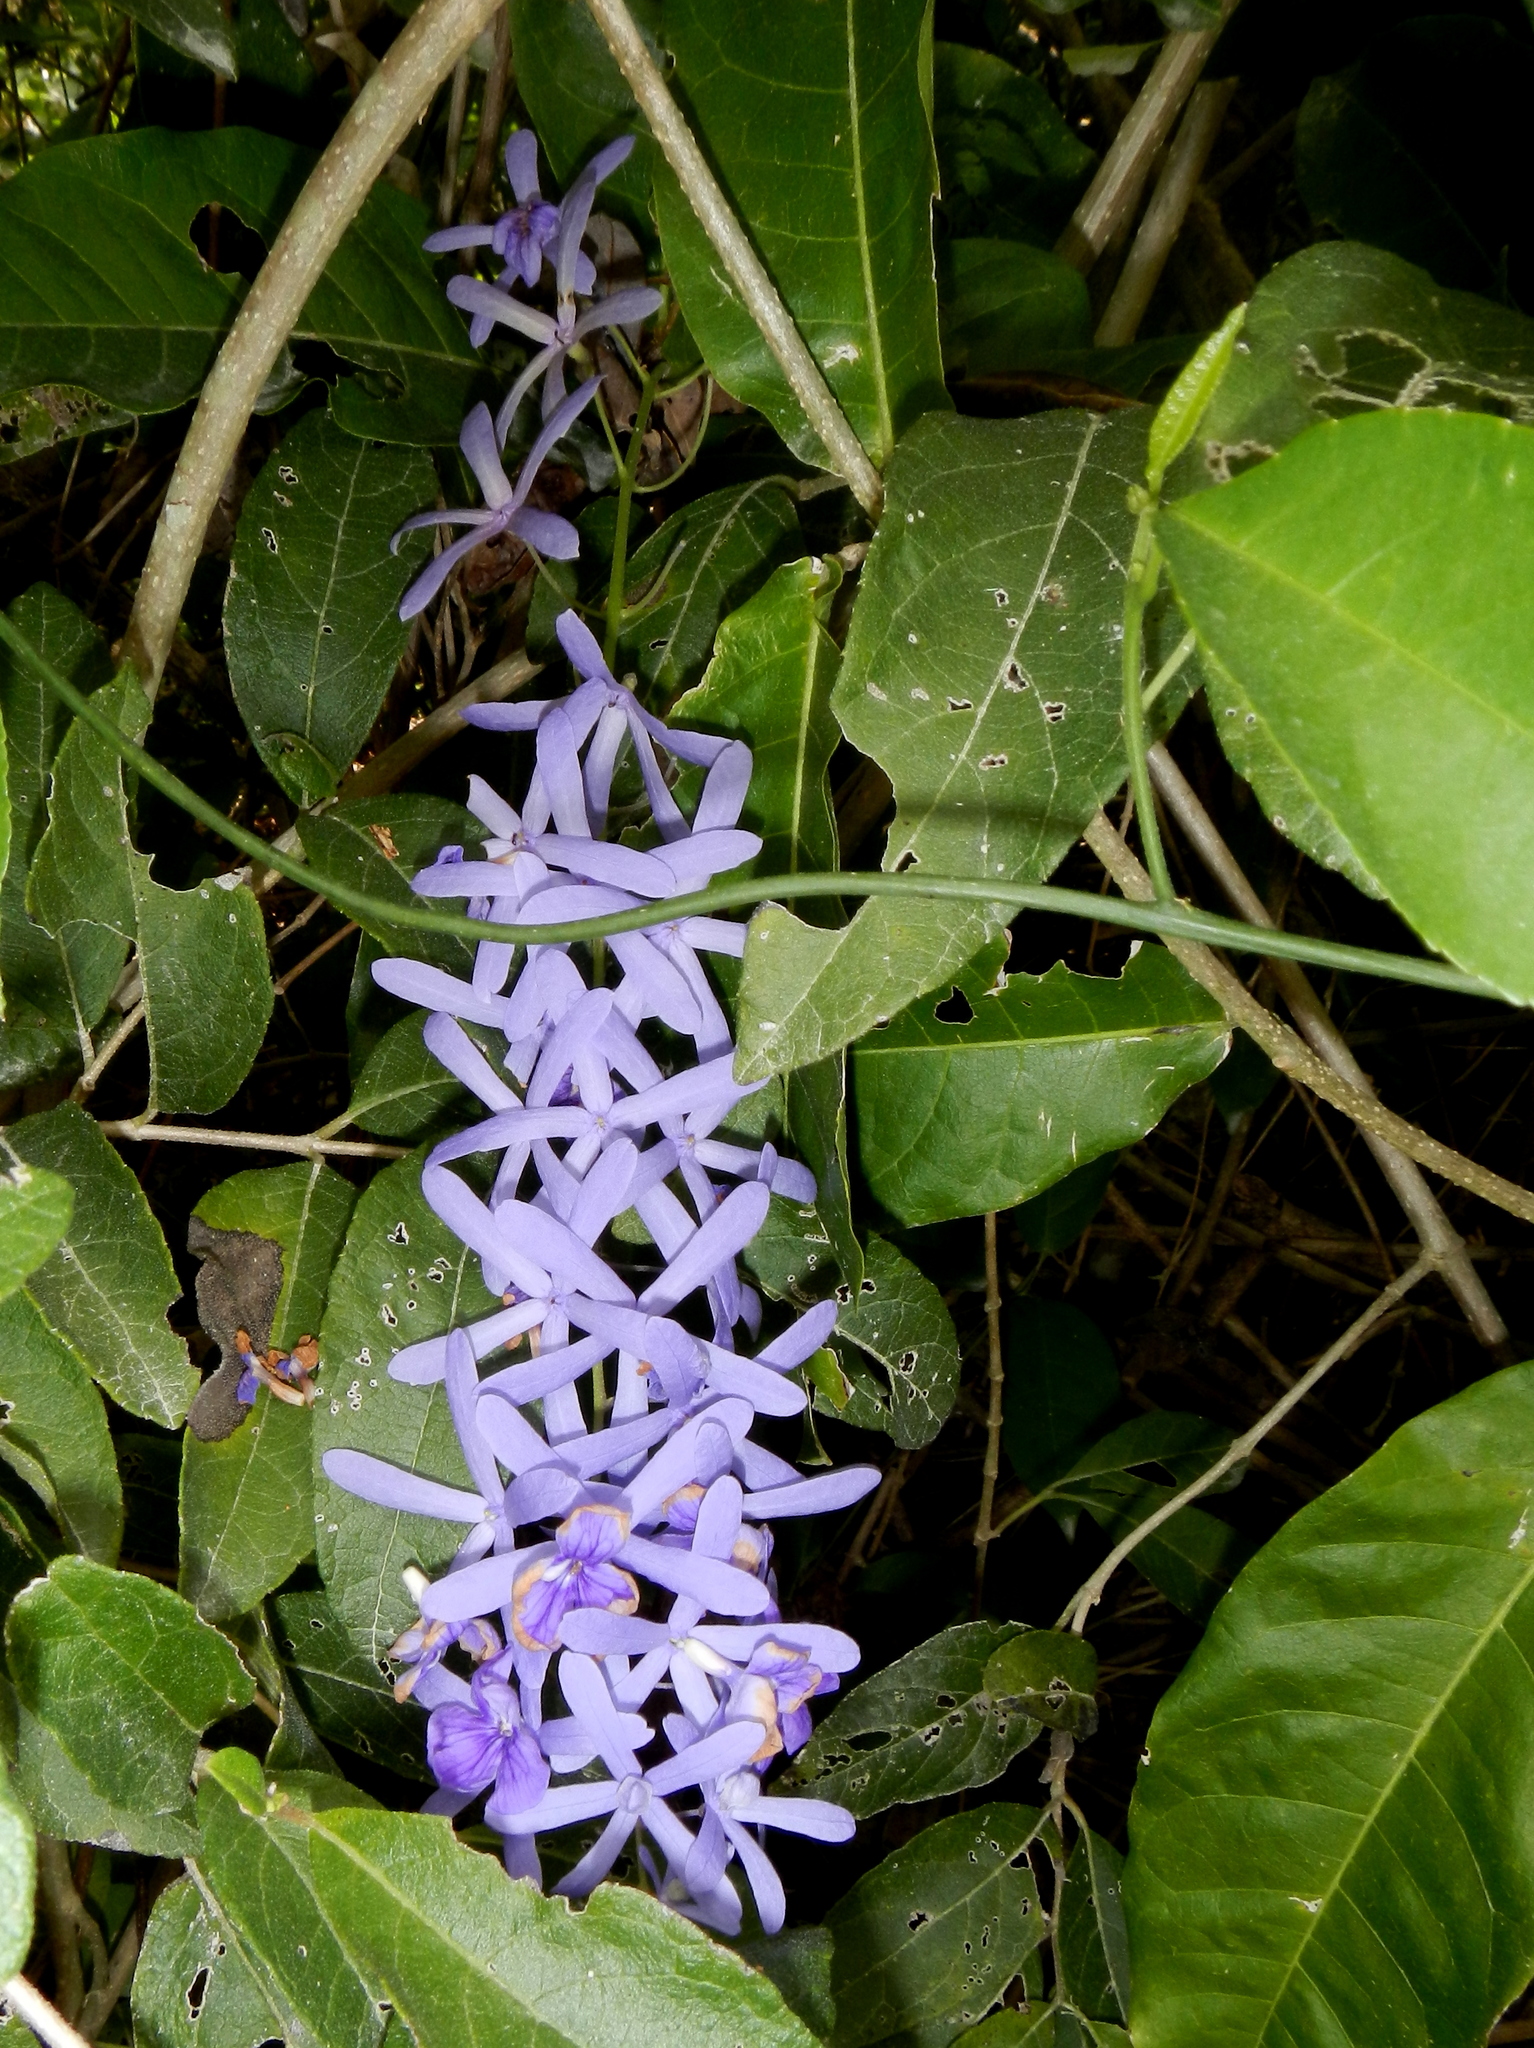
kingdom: Plantae
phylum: Tracheophyta
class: Magnoliopsida
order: Lamiales
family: Verbenaceae
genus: Petrea
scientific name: Petrea volubilis
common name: Queen's-wreath
